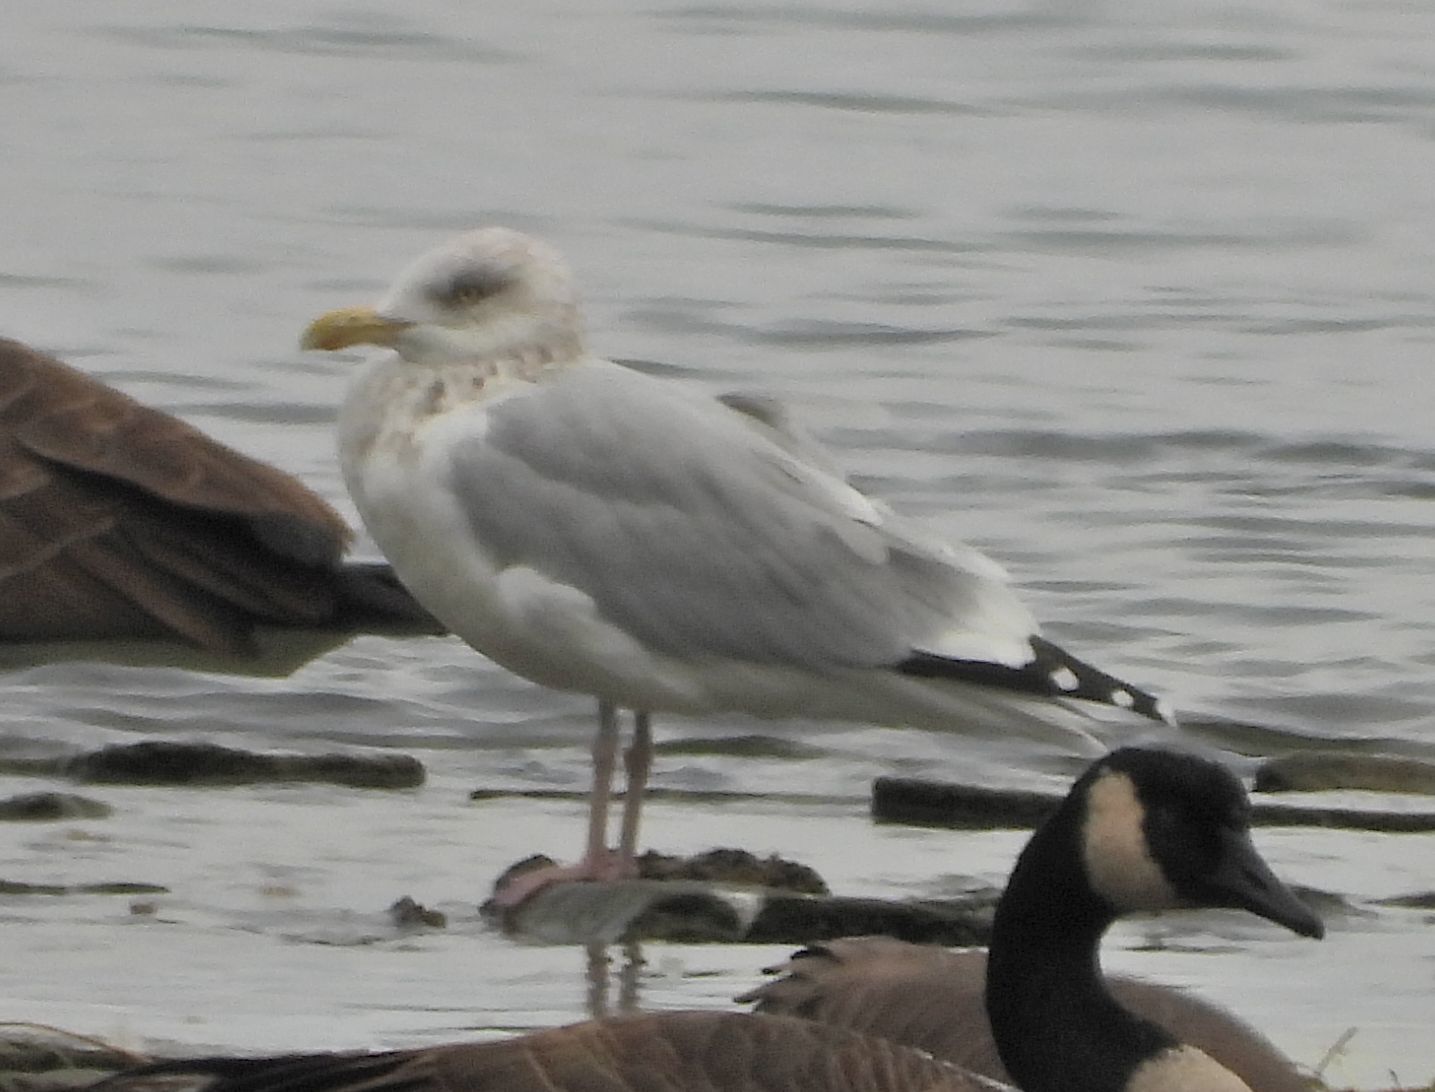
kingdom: Animalia
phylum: Chordata
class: Aves
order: Charadriiformes
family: Laridae
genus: Larus
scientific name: Larus argentatus
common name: Herring gull
